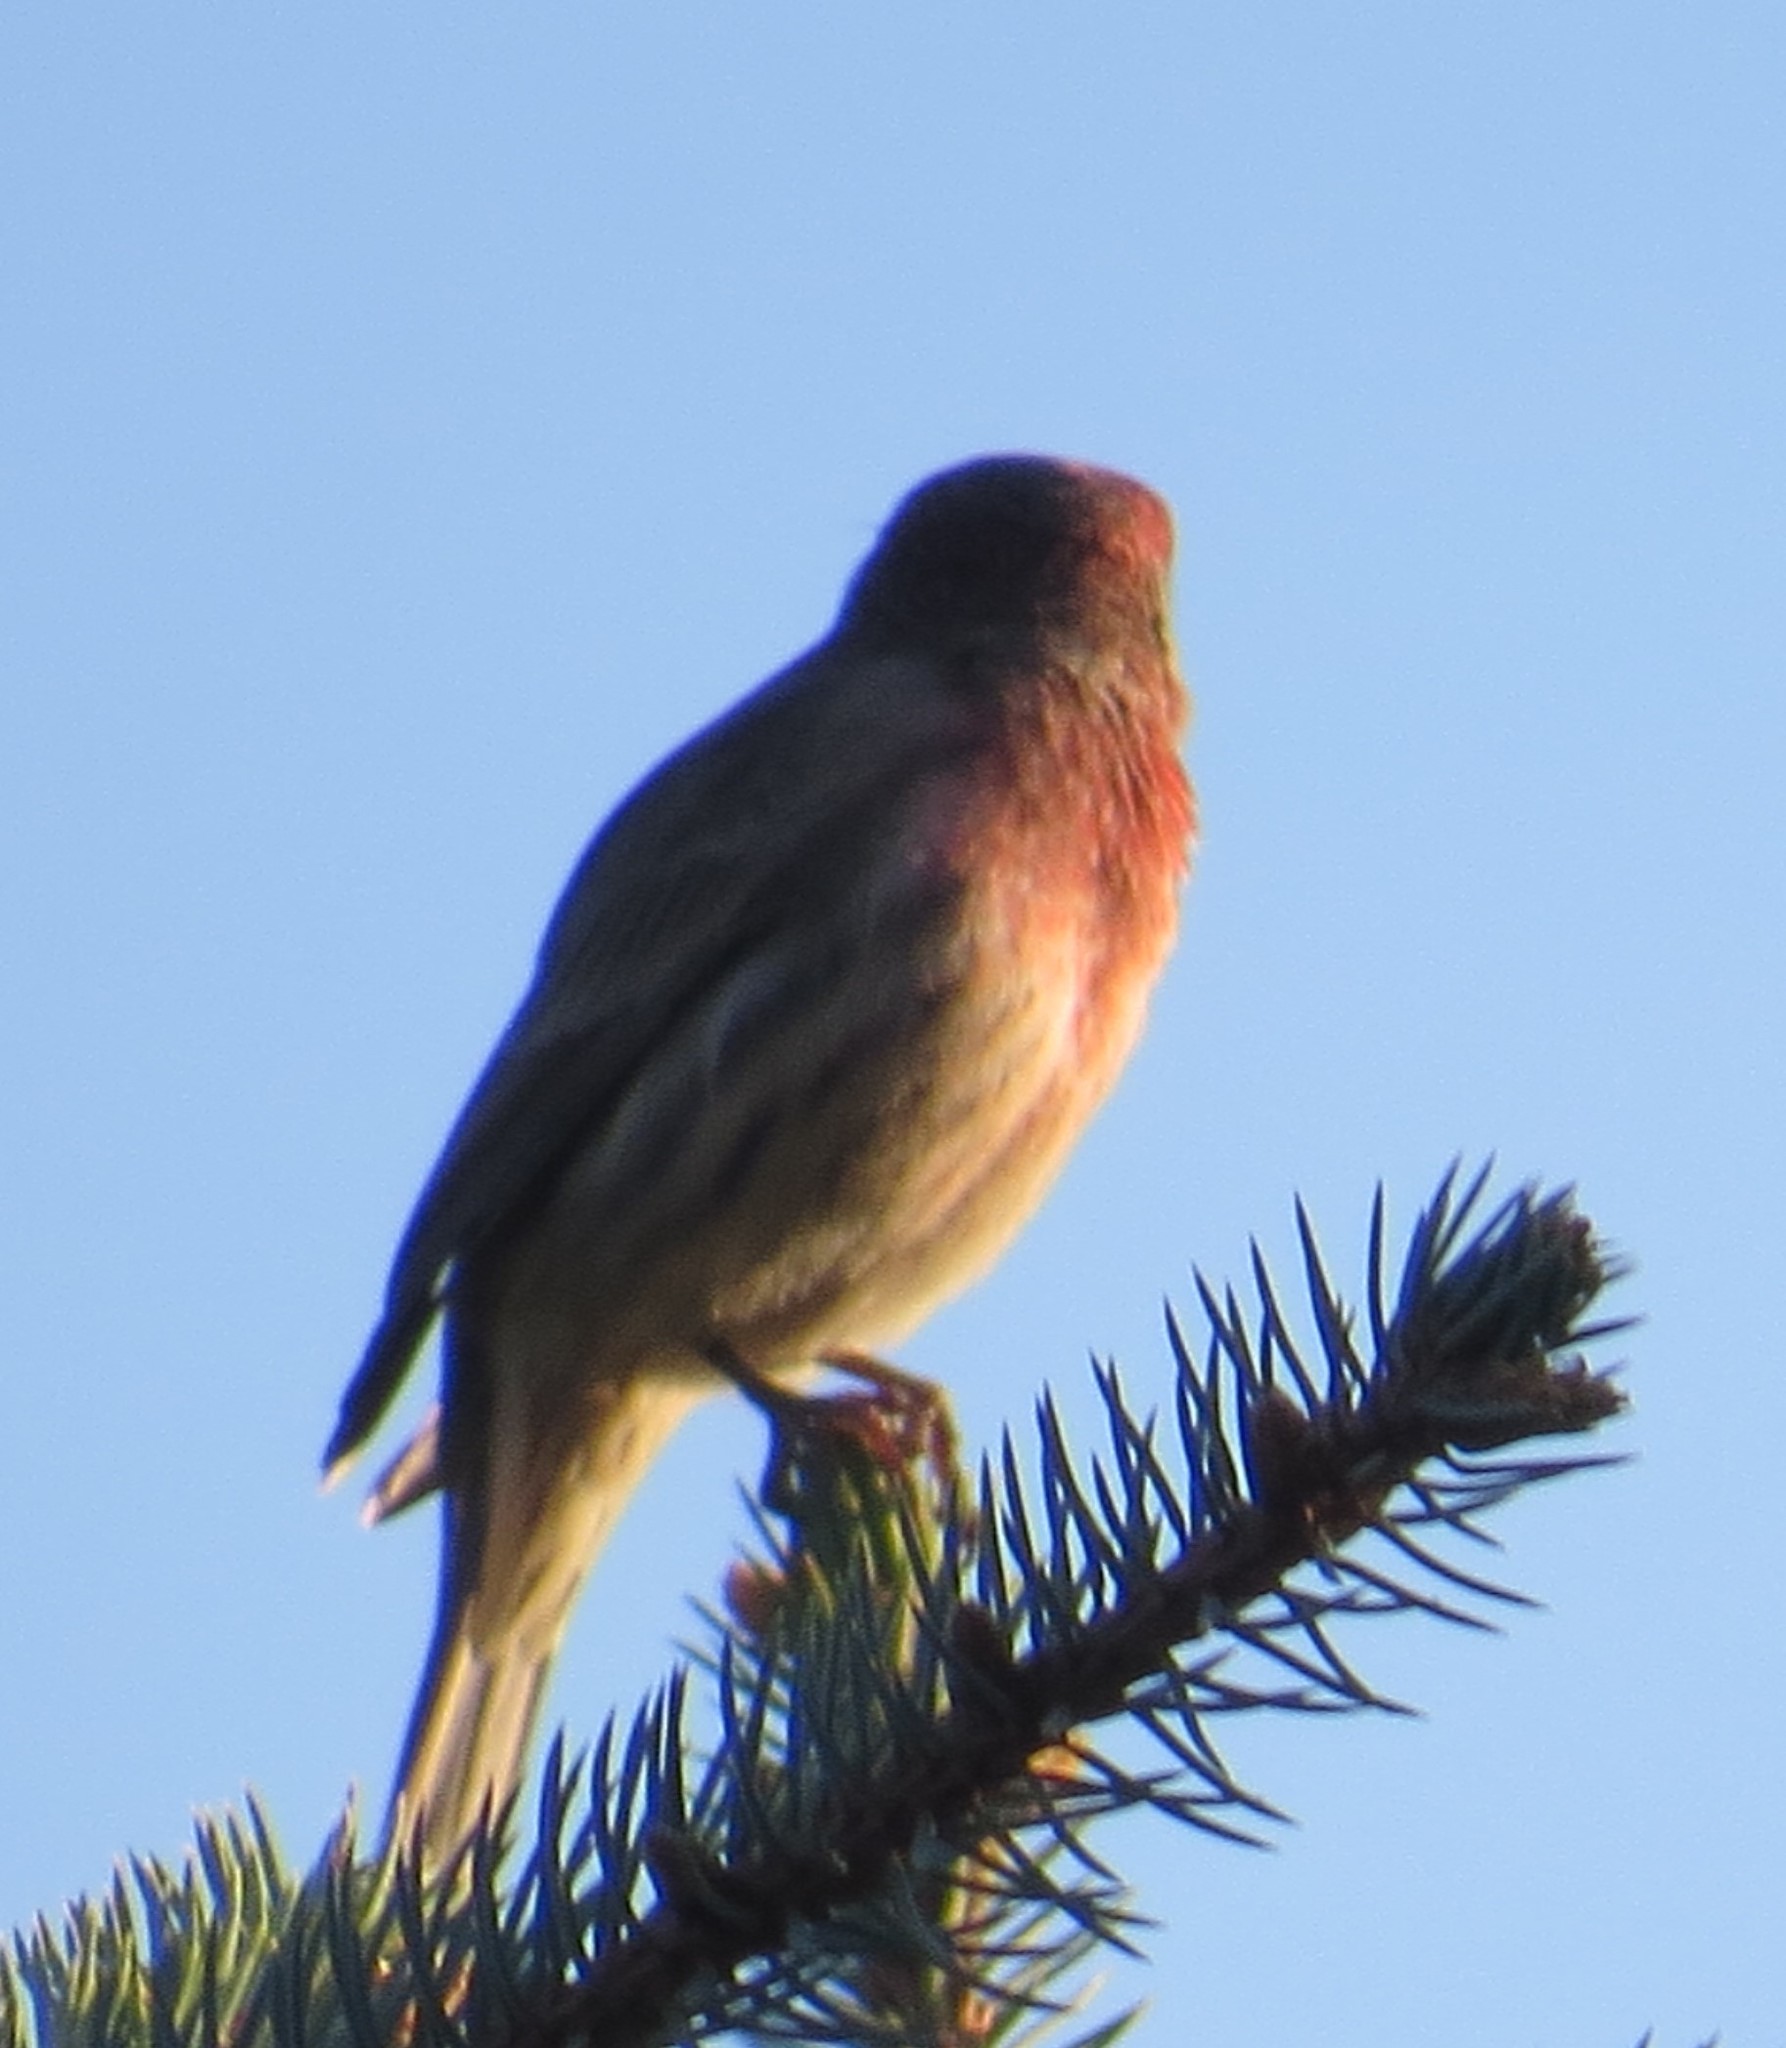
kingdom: Animalia
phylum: Chordata
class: Aves
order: Passeriformes
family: Fringillidae
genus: Haemorhous
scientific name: Haemorhous mexicanus
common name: House finch
